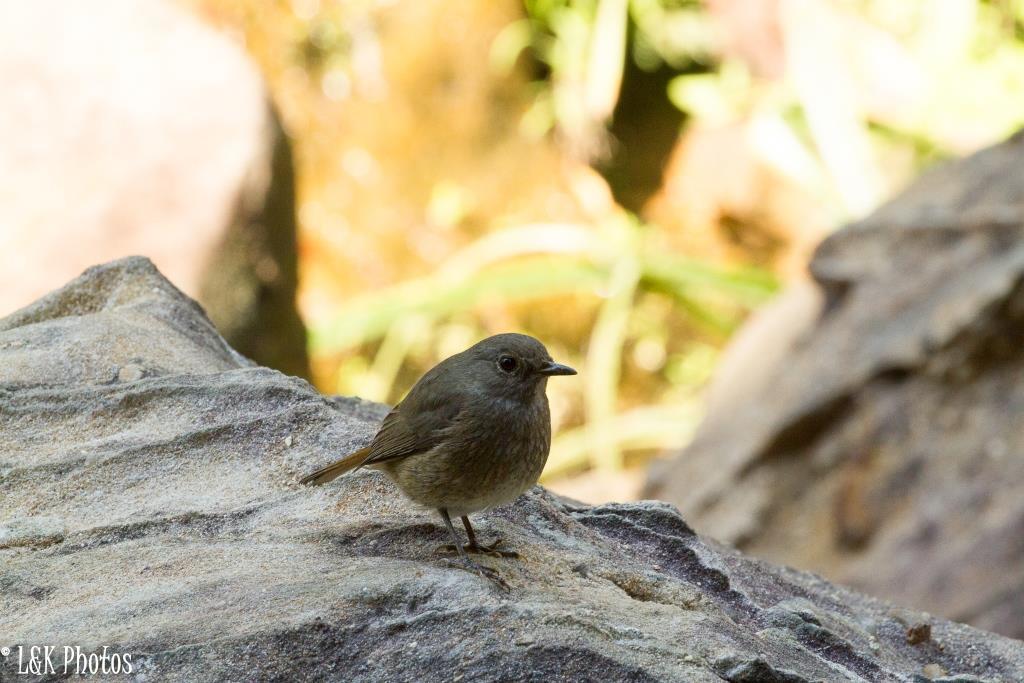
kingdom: Animalia
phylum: Chordata
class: Aves
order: Passeriformes
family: Muscicapidae
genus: Monticola
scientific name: Monticola sharpei
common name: Forest rock-thrush
